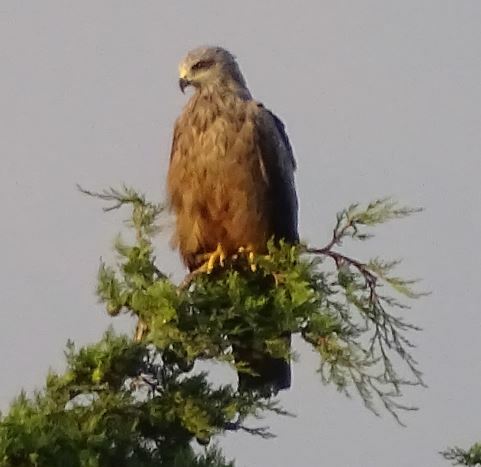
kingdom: Animalia
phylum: Chordata
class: Aves
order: Accipitriformes
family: Accipitridae
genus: Milvus
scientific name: Milvus migrans
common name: Black kite
